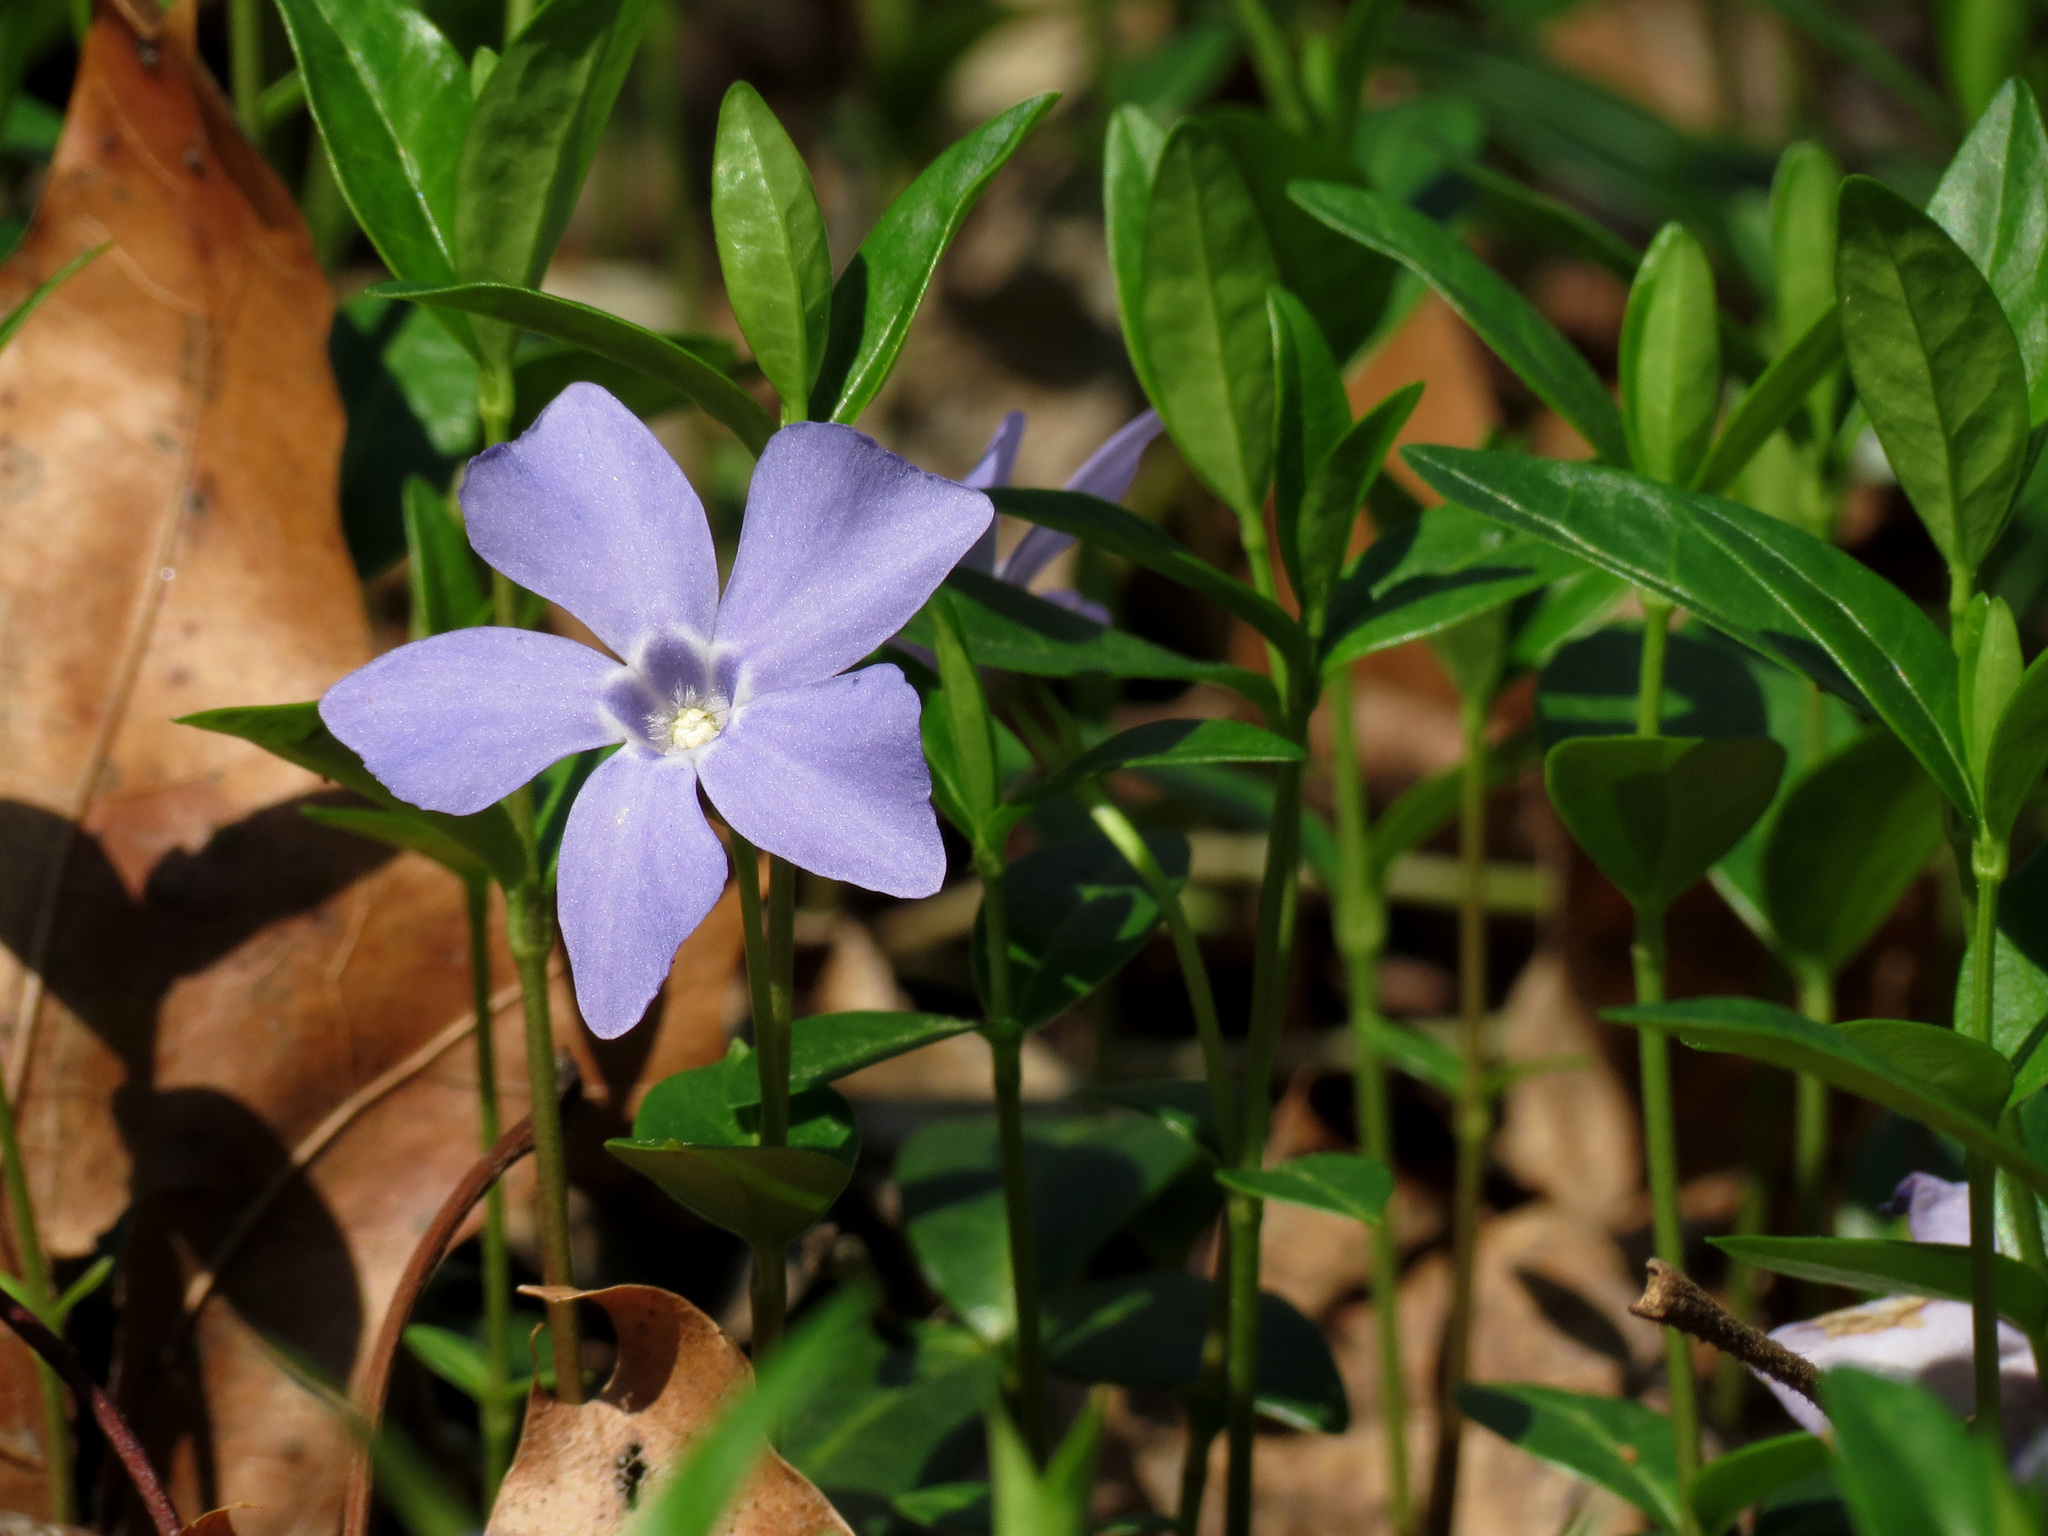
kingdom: Plantae
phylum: Tracheophyta
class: Magnoliopsida
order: Gentianales
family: Apocynaceae
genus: Vinca
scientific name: Vinca minor
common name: Lesser periwinkle
